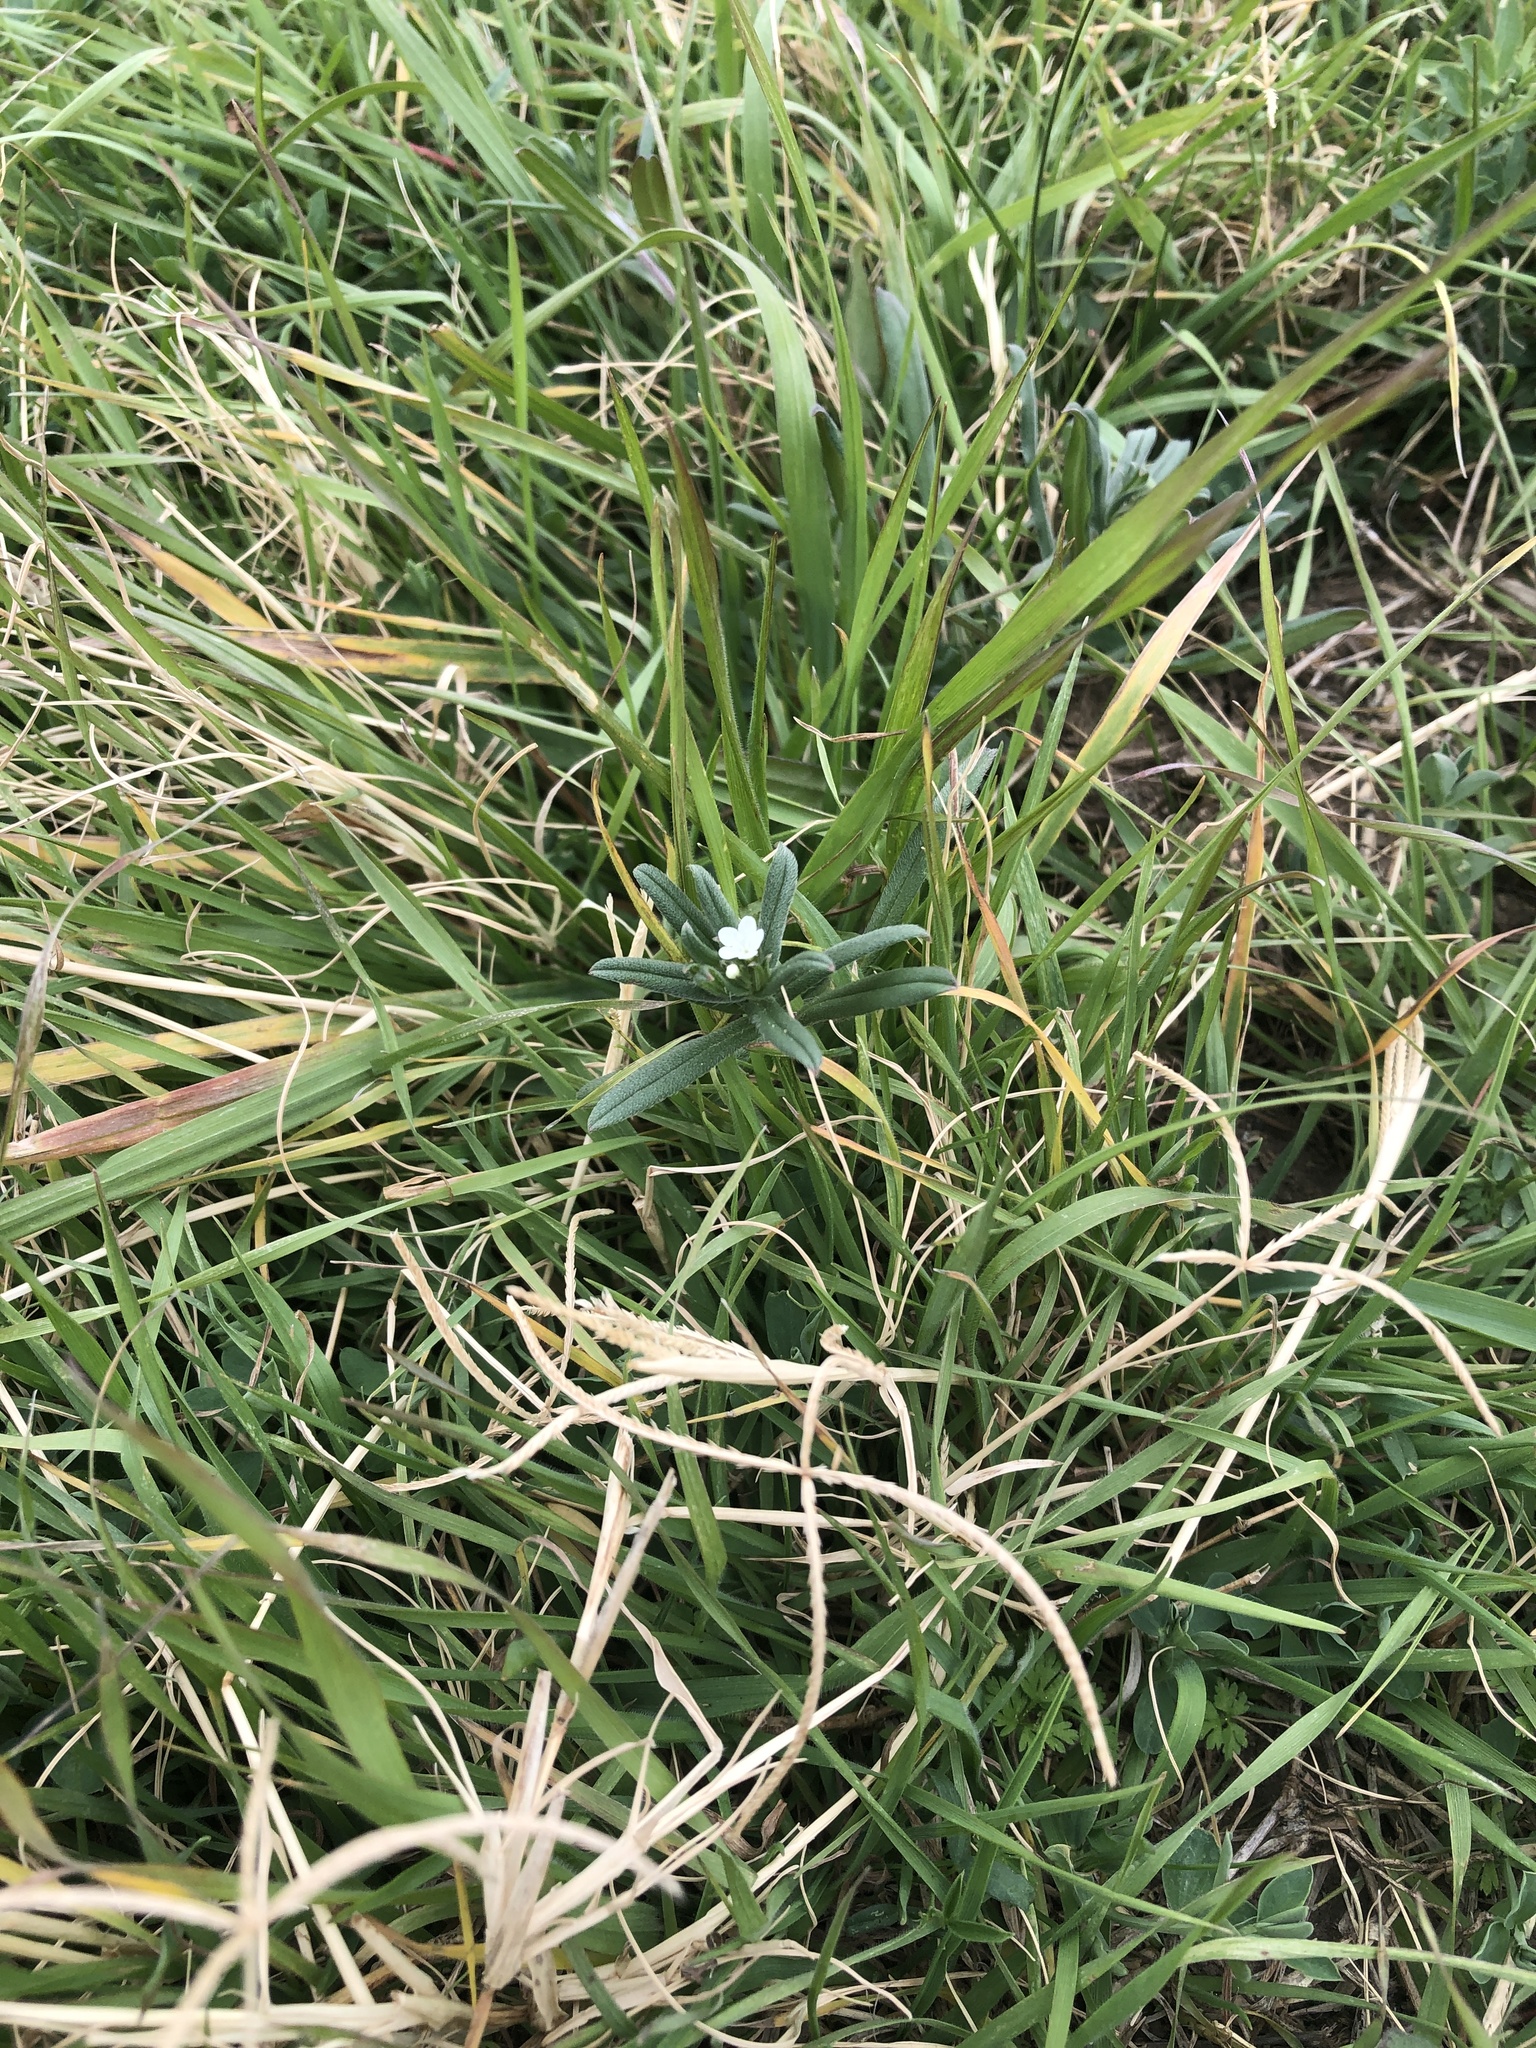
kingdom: Plantae
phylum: Tracheophyta
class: Magnoliopsida
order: Boraginales
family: Boraginaceae
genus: Buglossoides
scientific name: Buglossoides arvensis
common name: Corn gromwell
